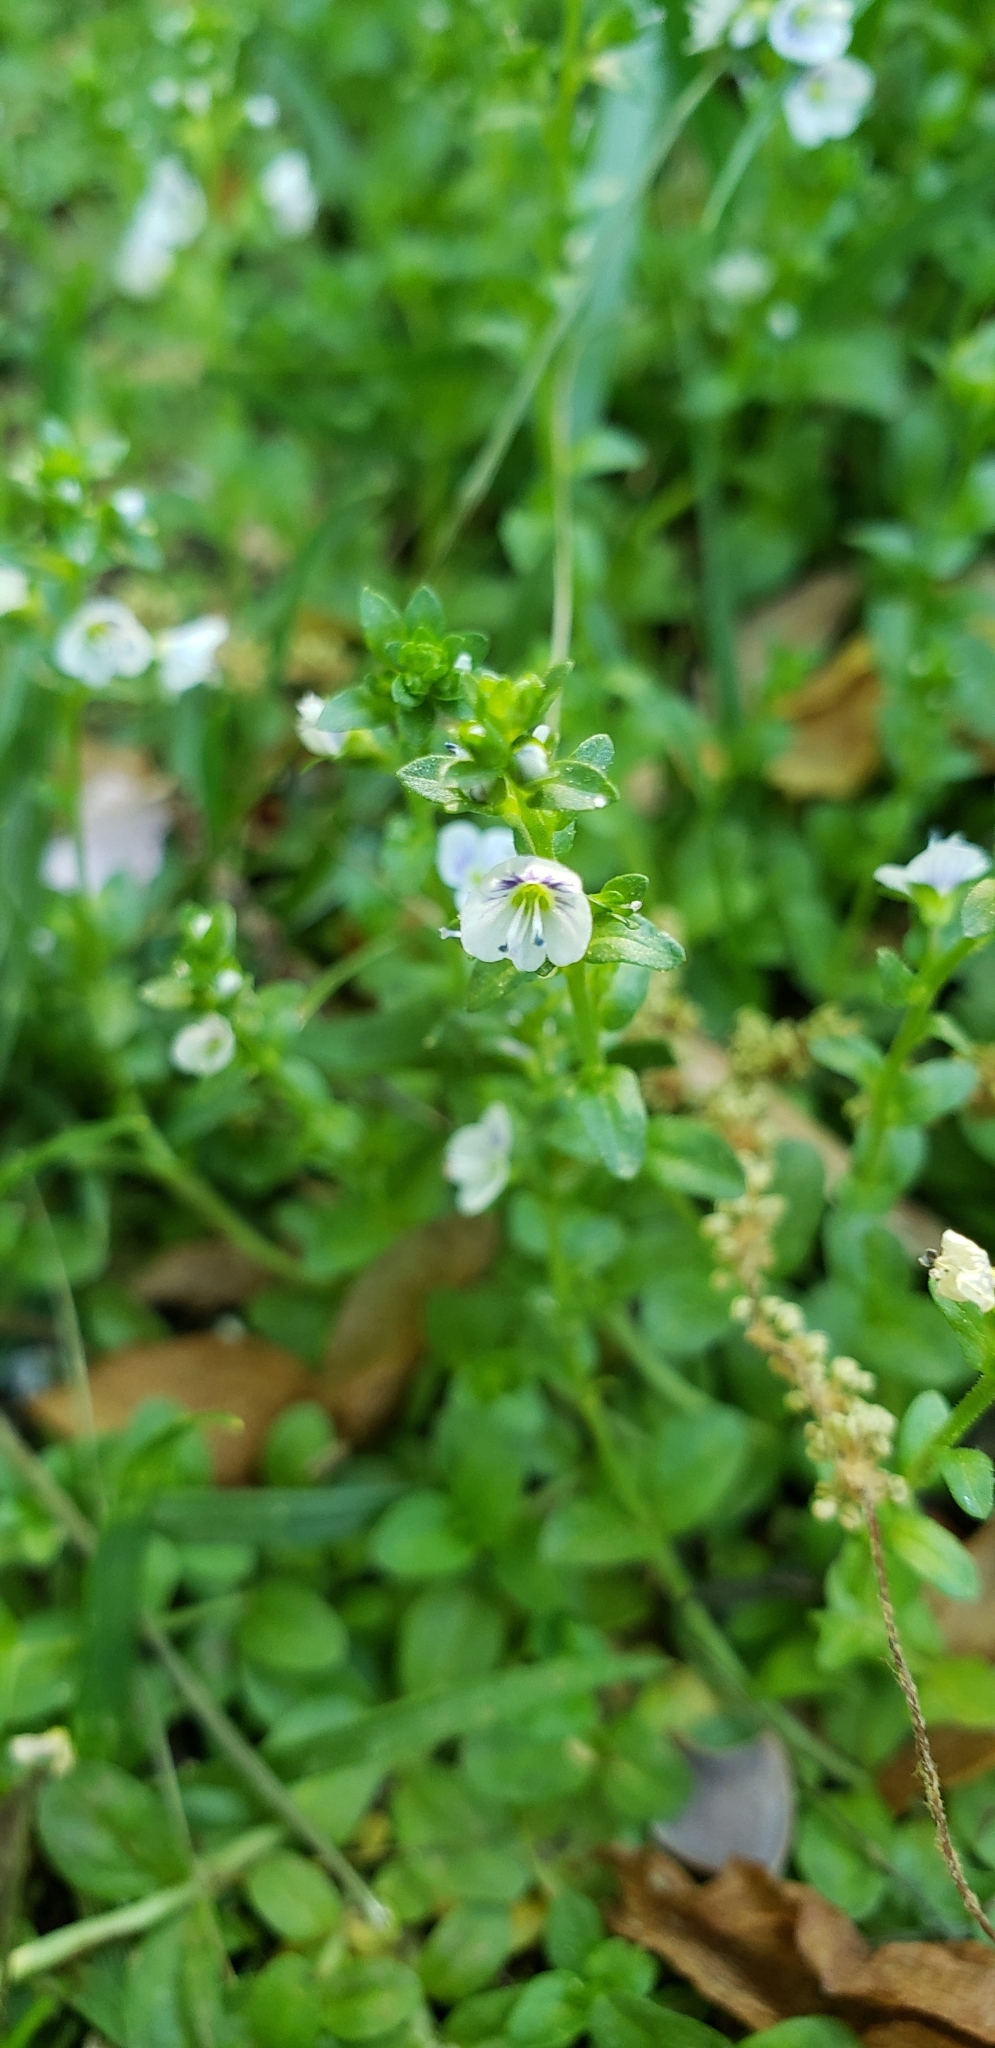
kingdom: Plantae
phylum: Tracheophyta
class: Magnoliopsida
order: Lamiales
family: Plantaginaceae
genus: Veronica
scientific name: Veronica serpyllifolia
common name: Thyme-leaved speedwell
